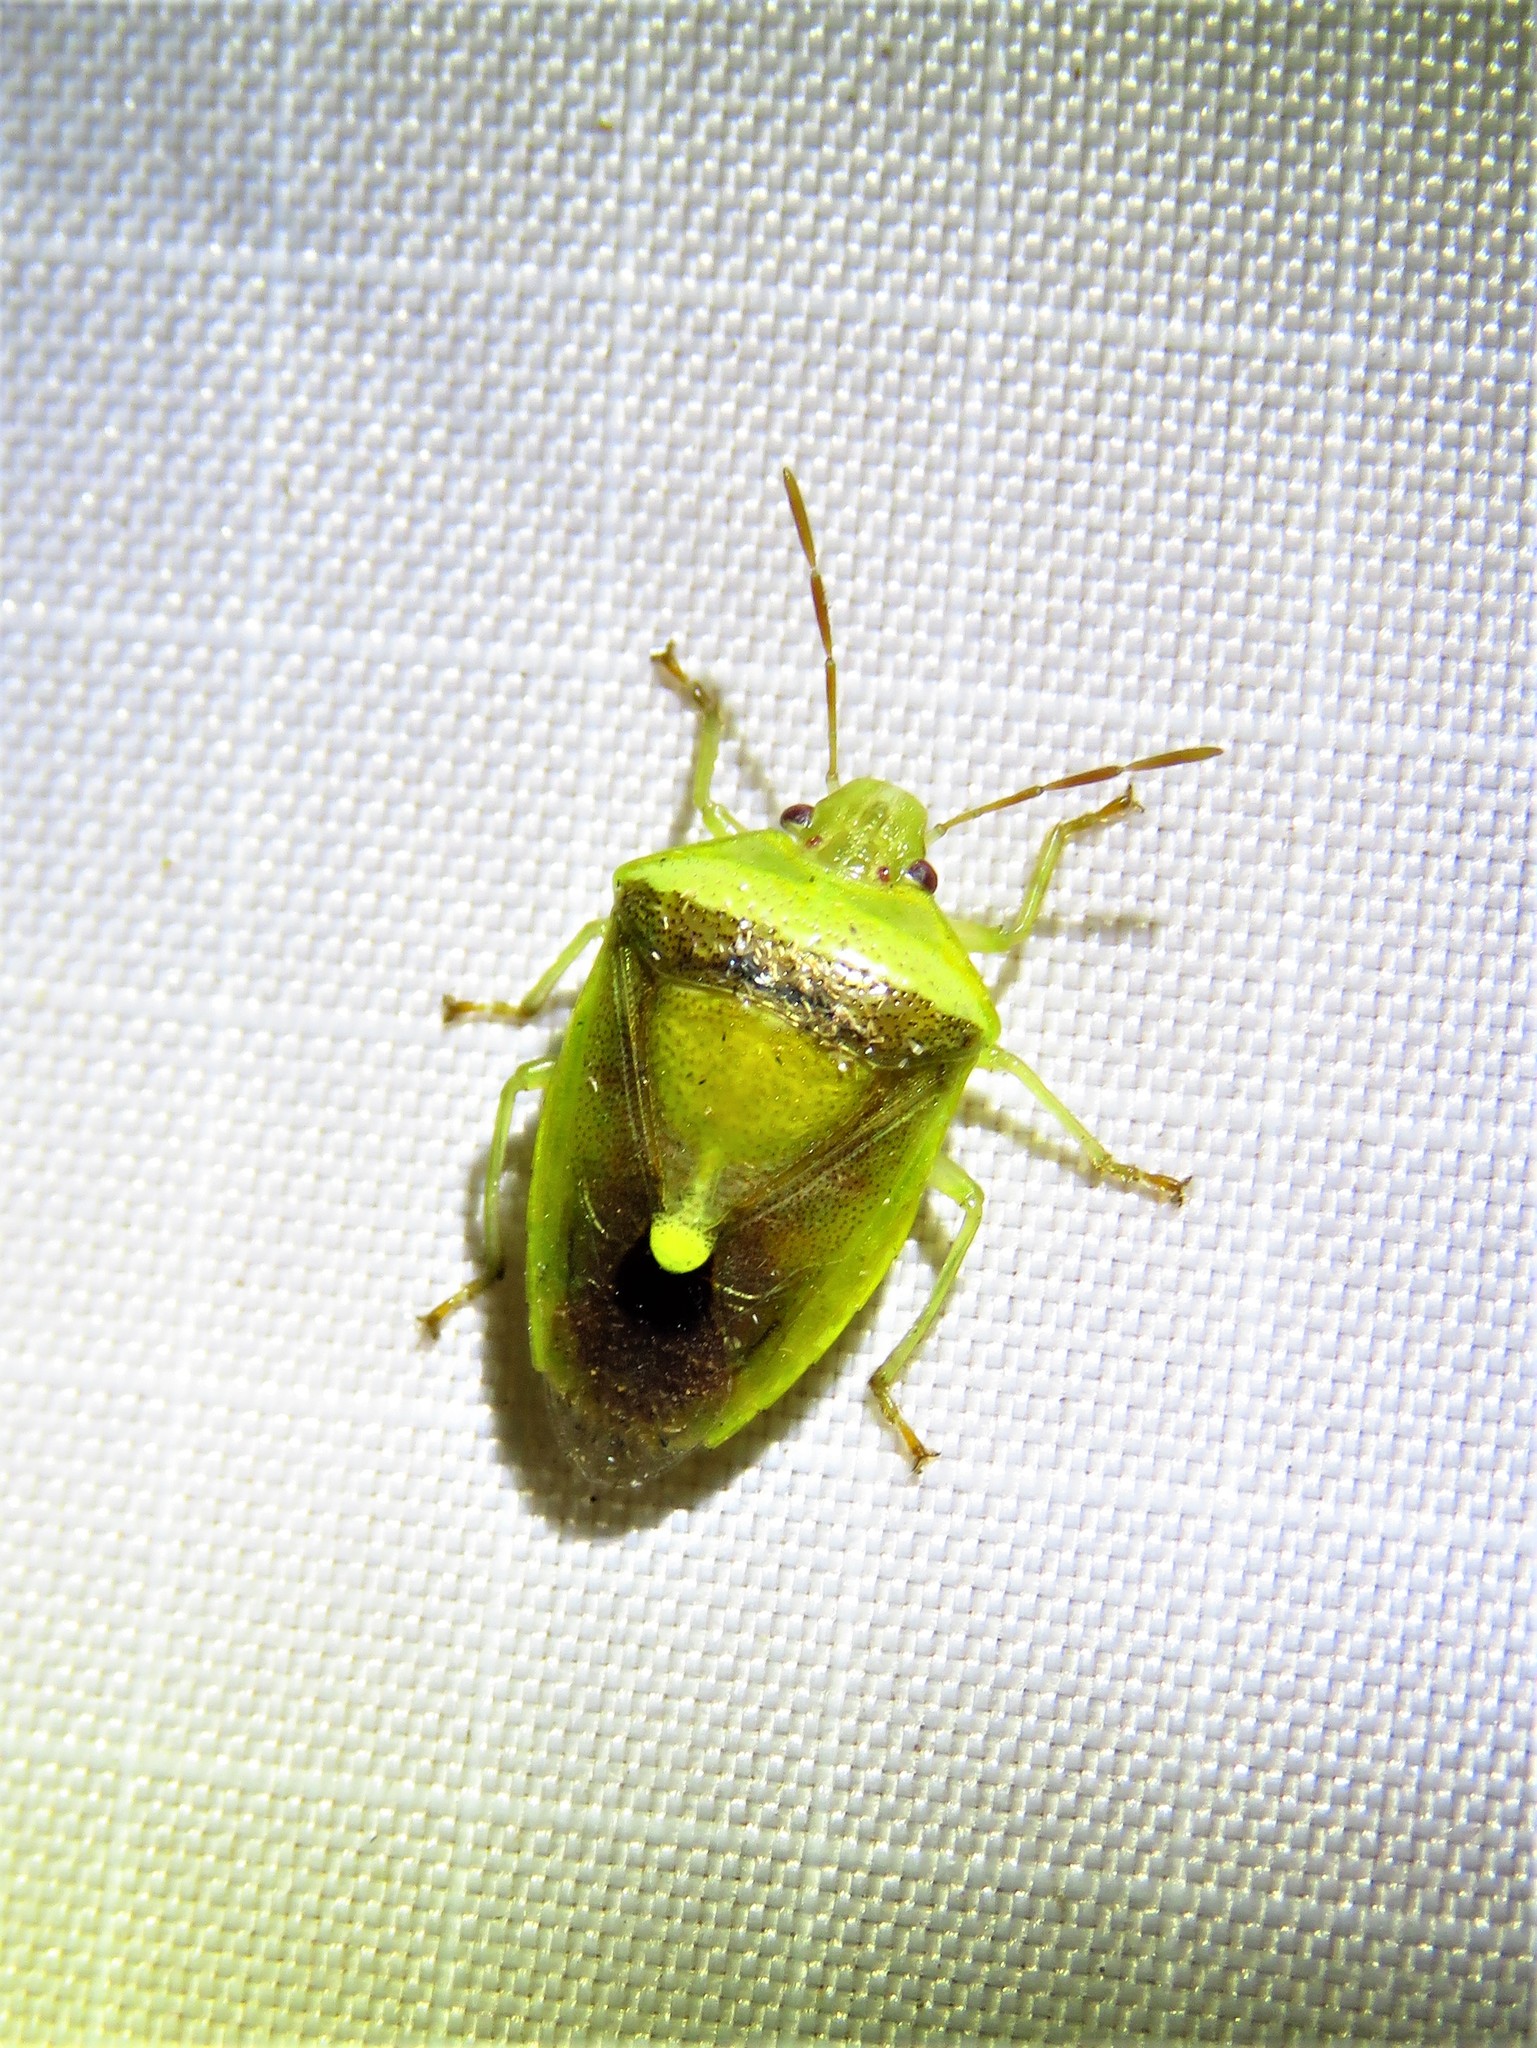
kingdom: Animalia
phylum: Arthropoda
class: Insecta
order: Hemiptera
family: Pentatomidae
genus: Banasa
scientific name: Banasa dimidiata
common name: Green burgundy stink bug
